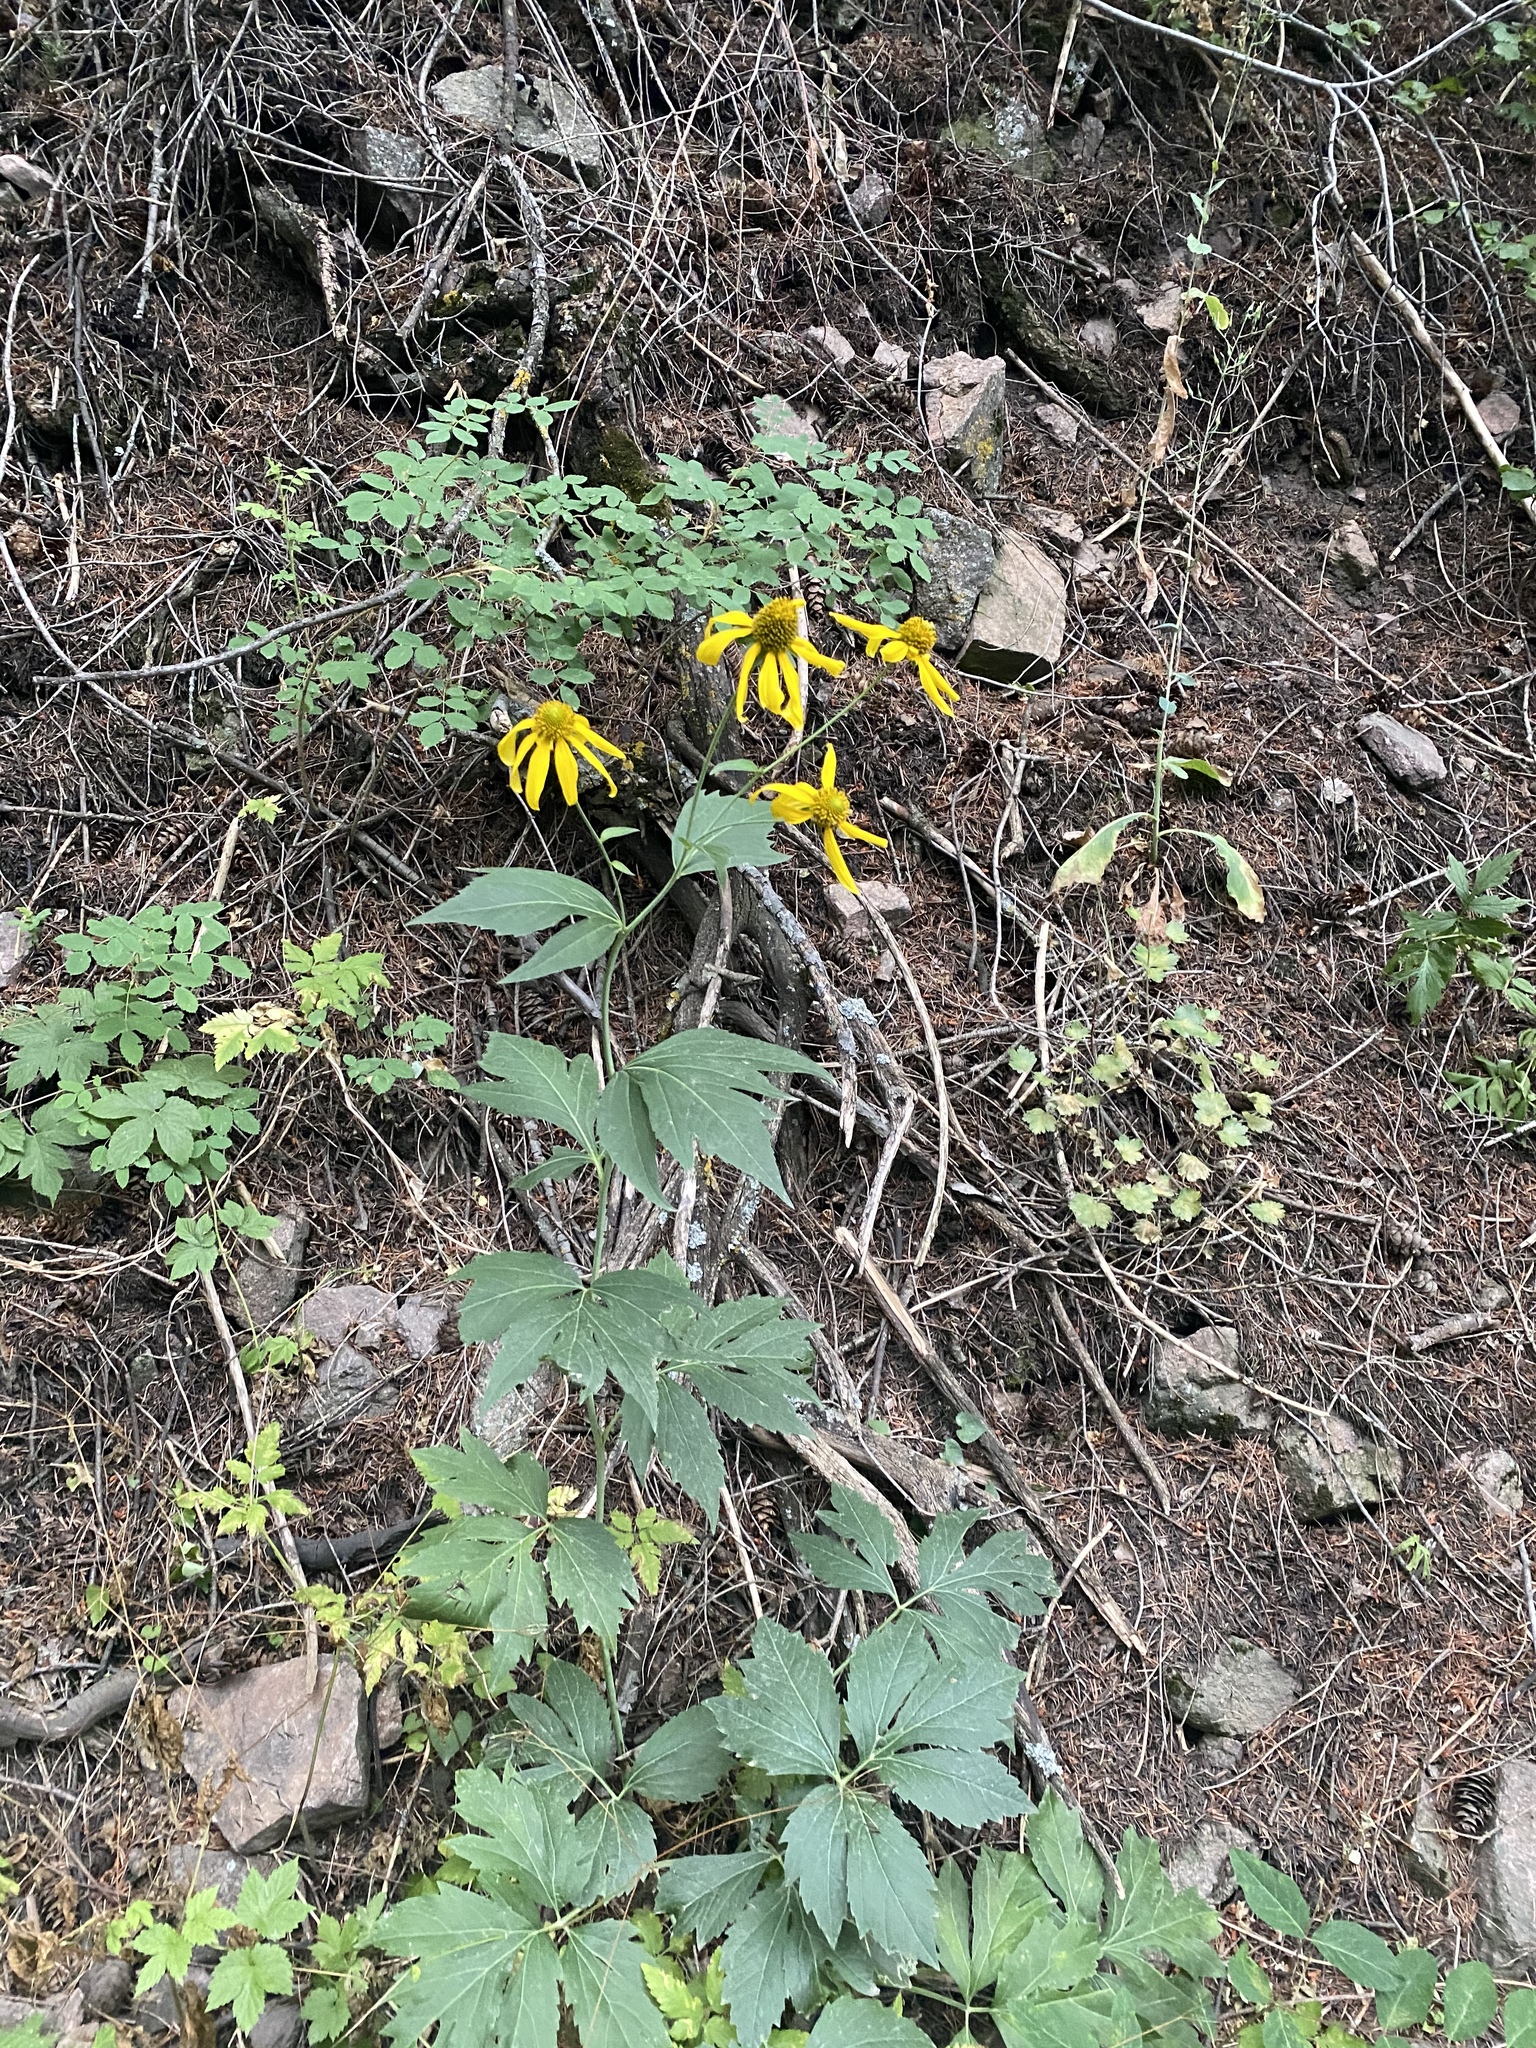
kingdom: Plantae
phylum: Tracheophyta
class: Magnoliopsida
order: Asterales
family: Asteraceae
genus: Rudbeckia
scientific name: Rudbeckia laciniata
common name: Coneflower
